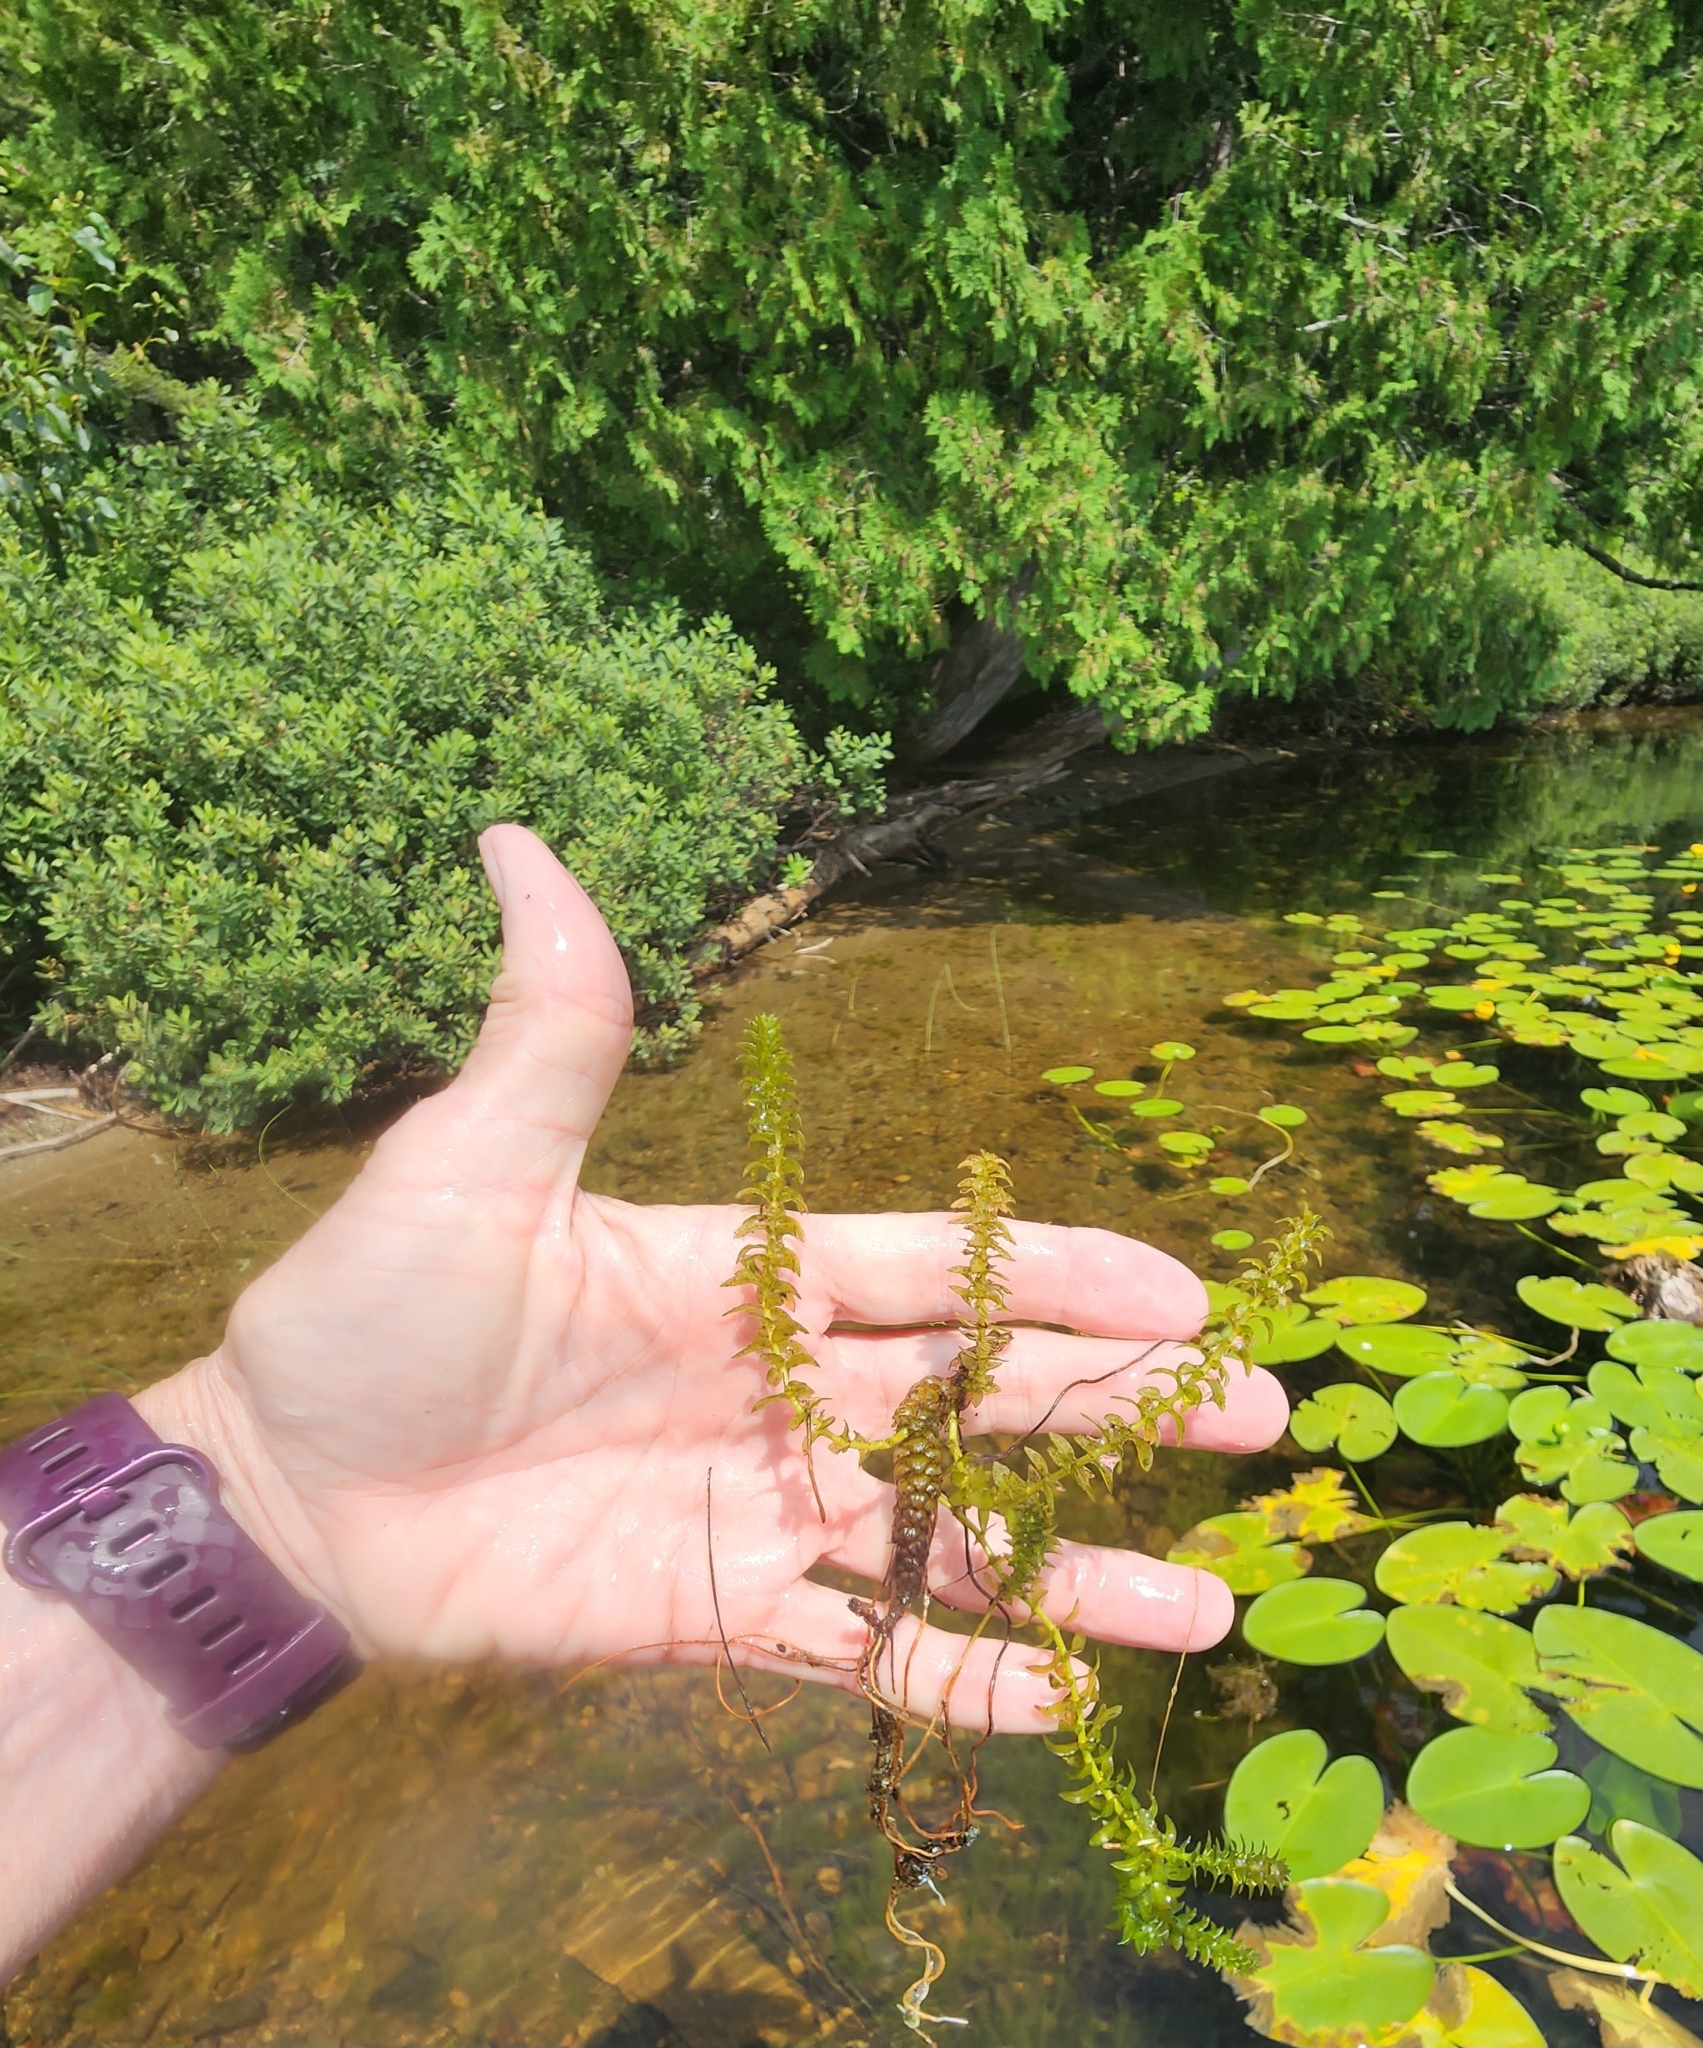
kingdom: Plantae
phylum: Tracheophyta
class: Liliopsida
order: Alismatales
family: Hydrocharitaceae
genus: Elodea
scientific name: Elodea canadensis
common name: Canadian waterweed
